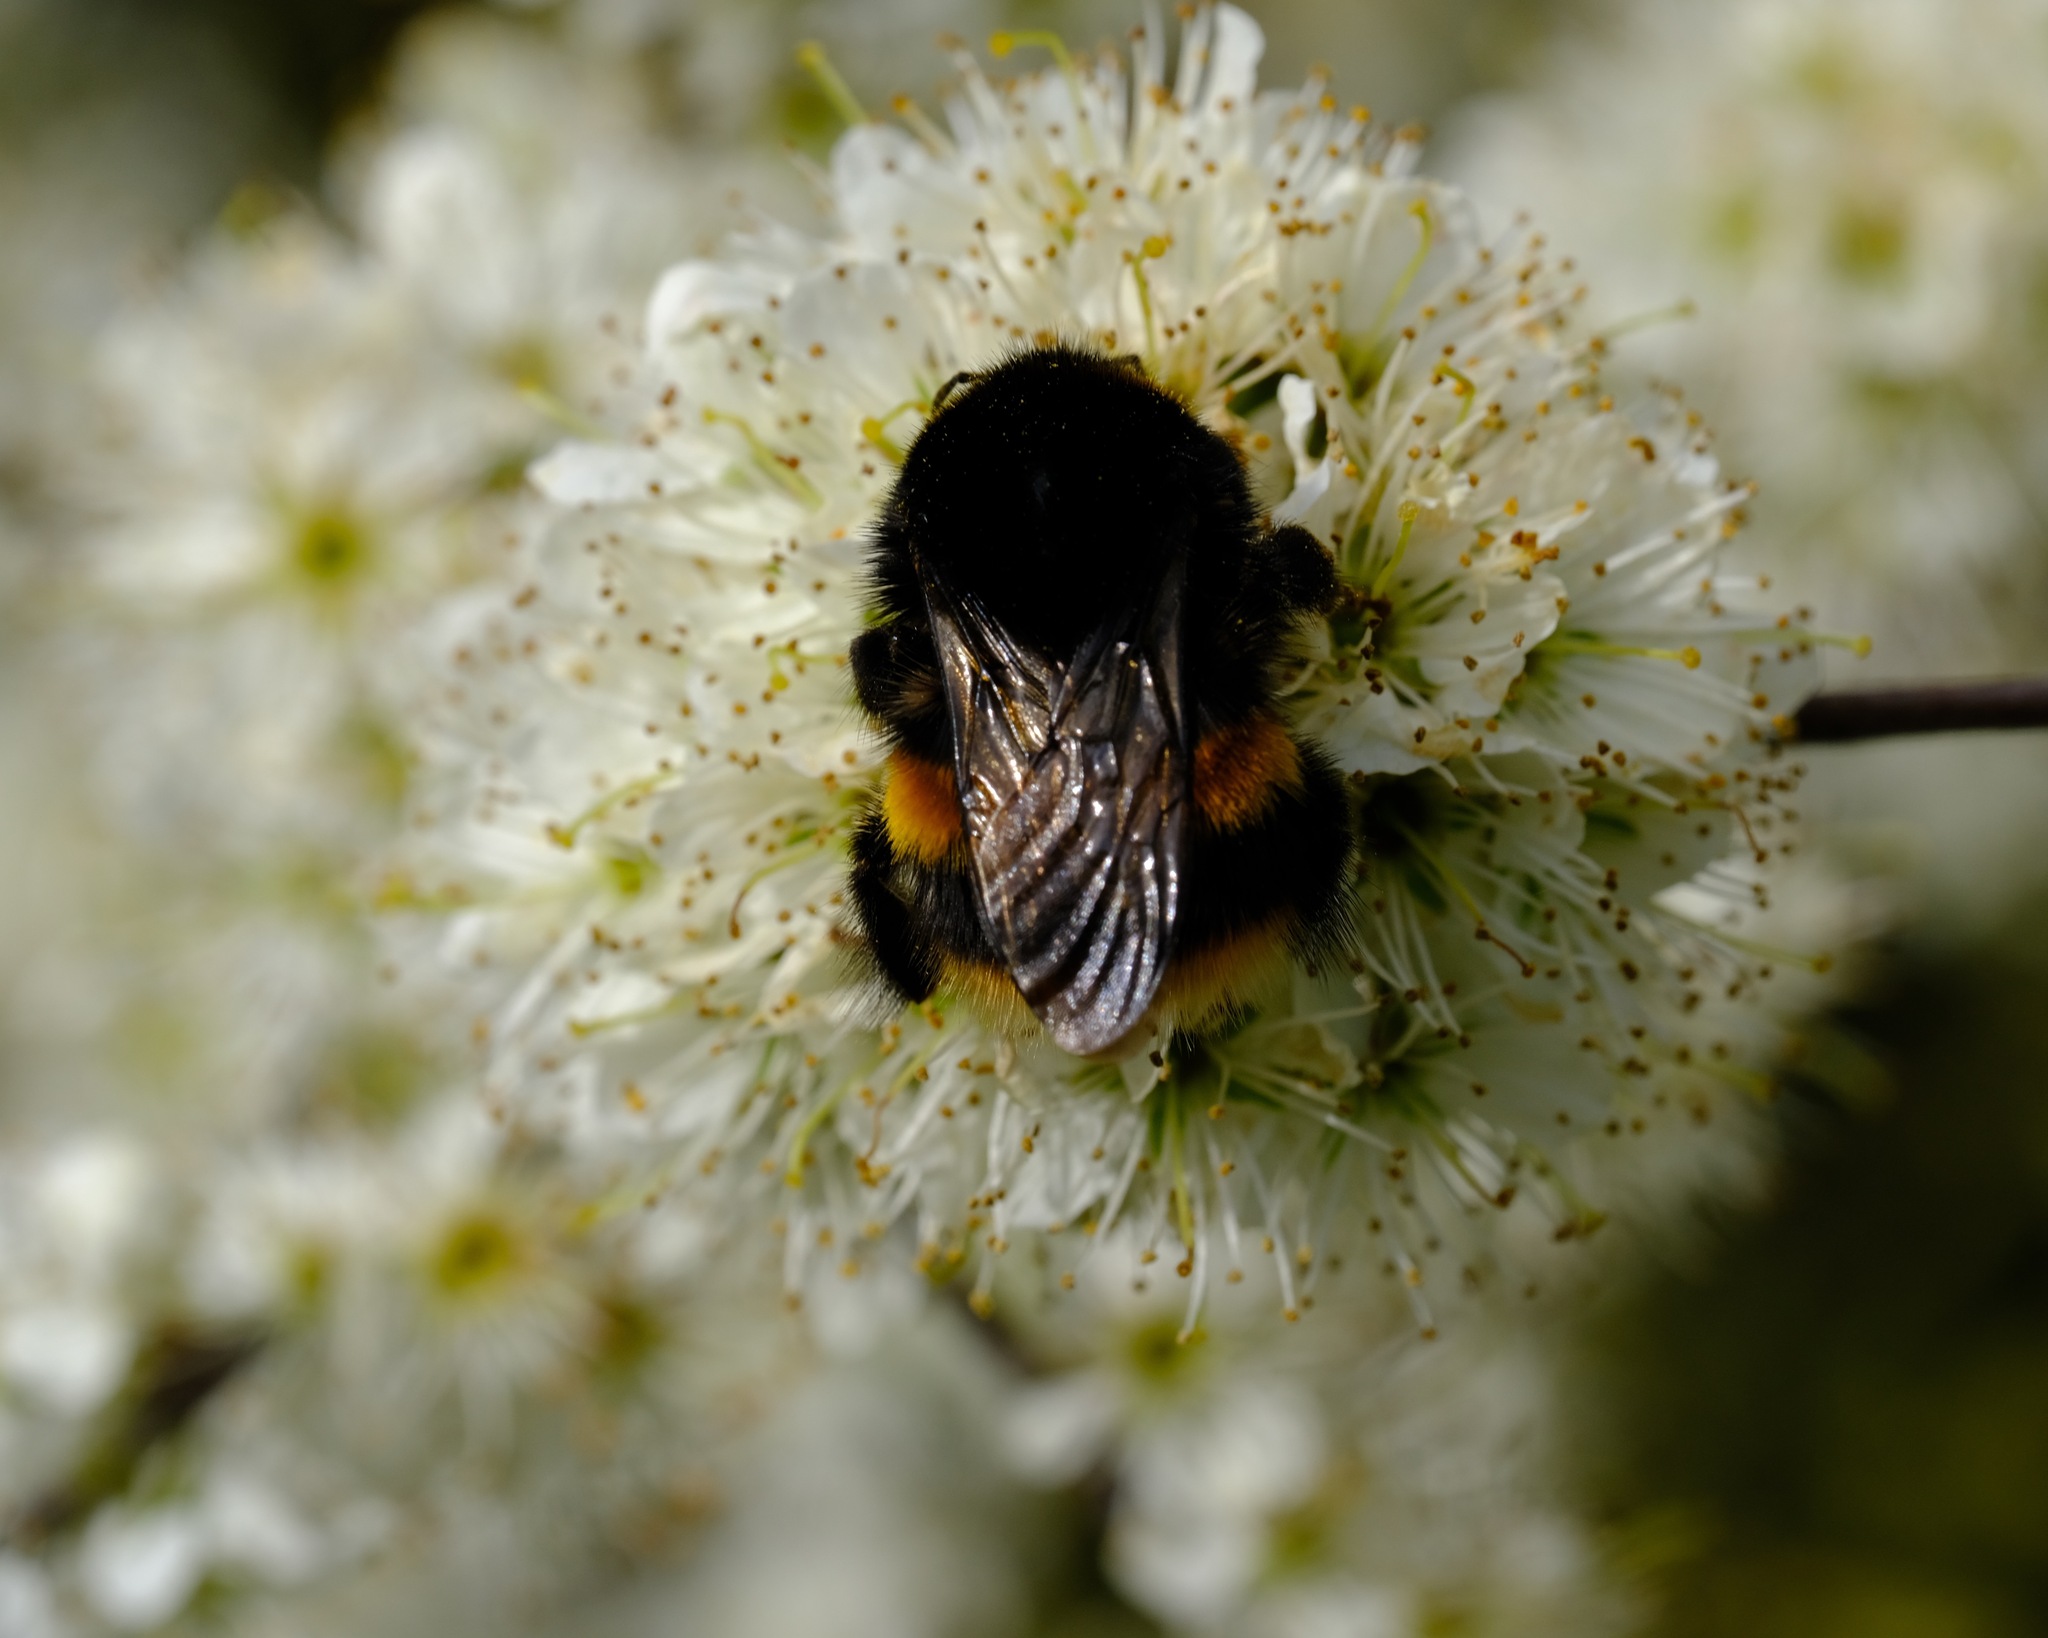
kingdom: Animalia
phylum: Arthropoda
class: Insecta
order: Hymenoptera
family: Apidae
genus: Bombus
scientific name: Bombus terrestris
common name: Buff-tailed bumblebee
